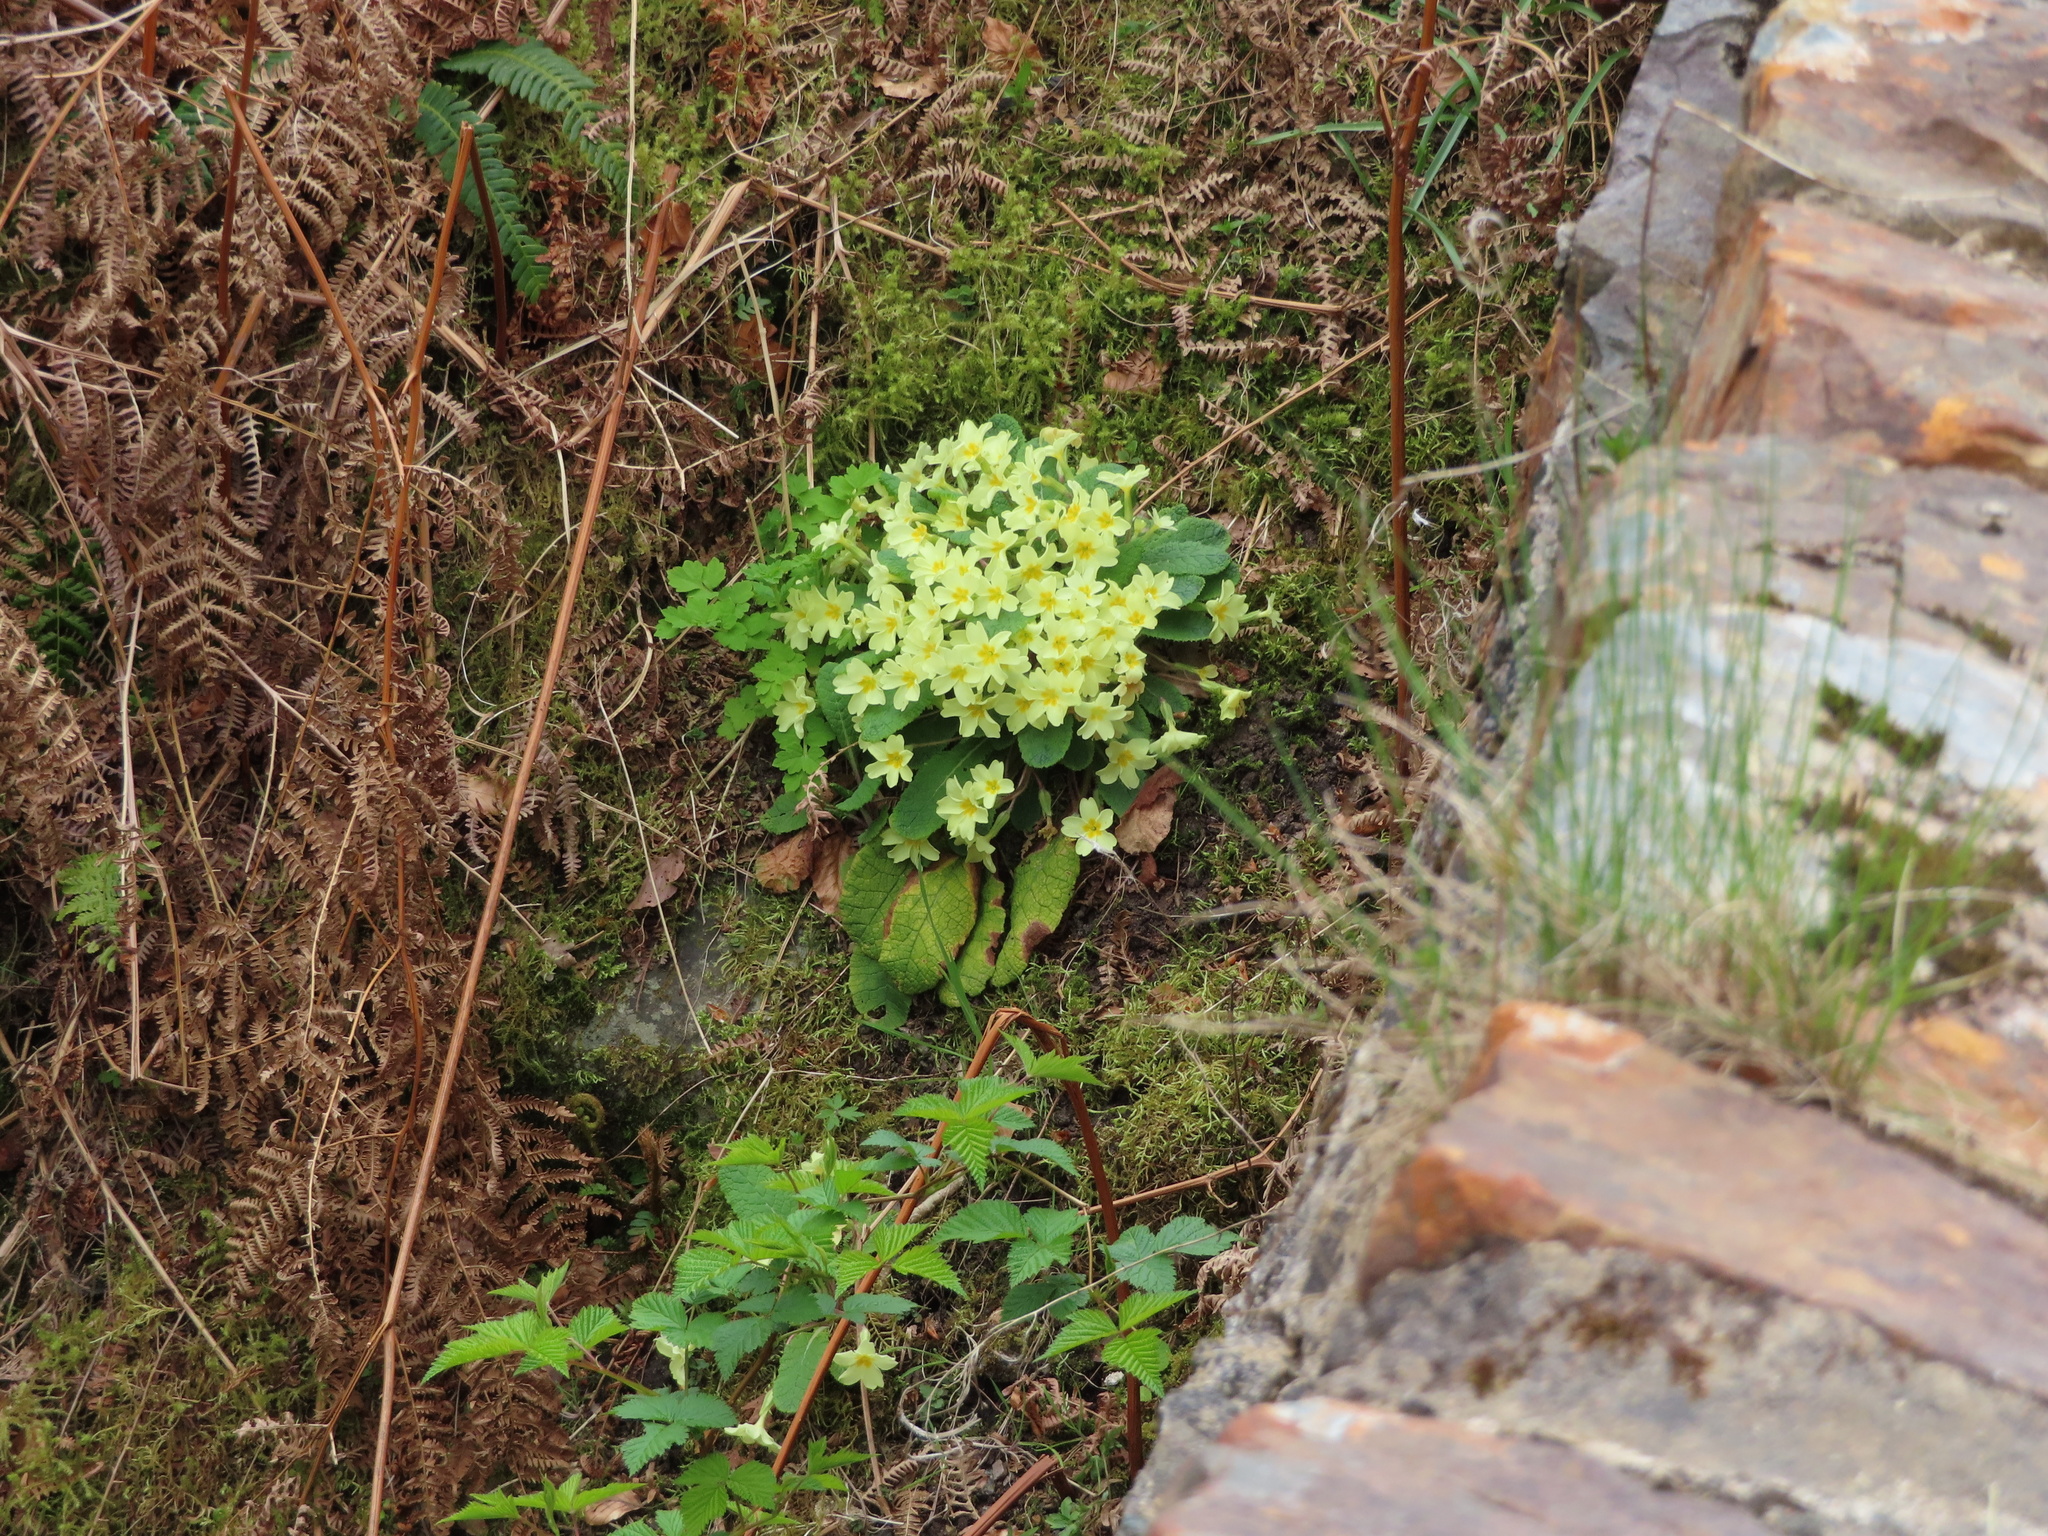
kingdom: Plantae
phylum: Tracheophyta
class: Magnoliopsida
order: Ericales
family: Primulaceae
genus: Primula
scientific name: Primula vulgaris
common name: Primrose
